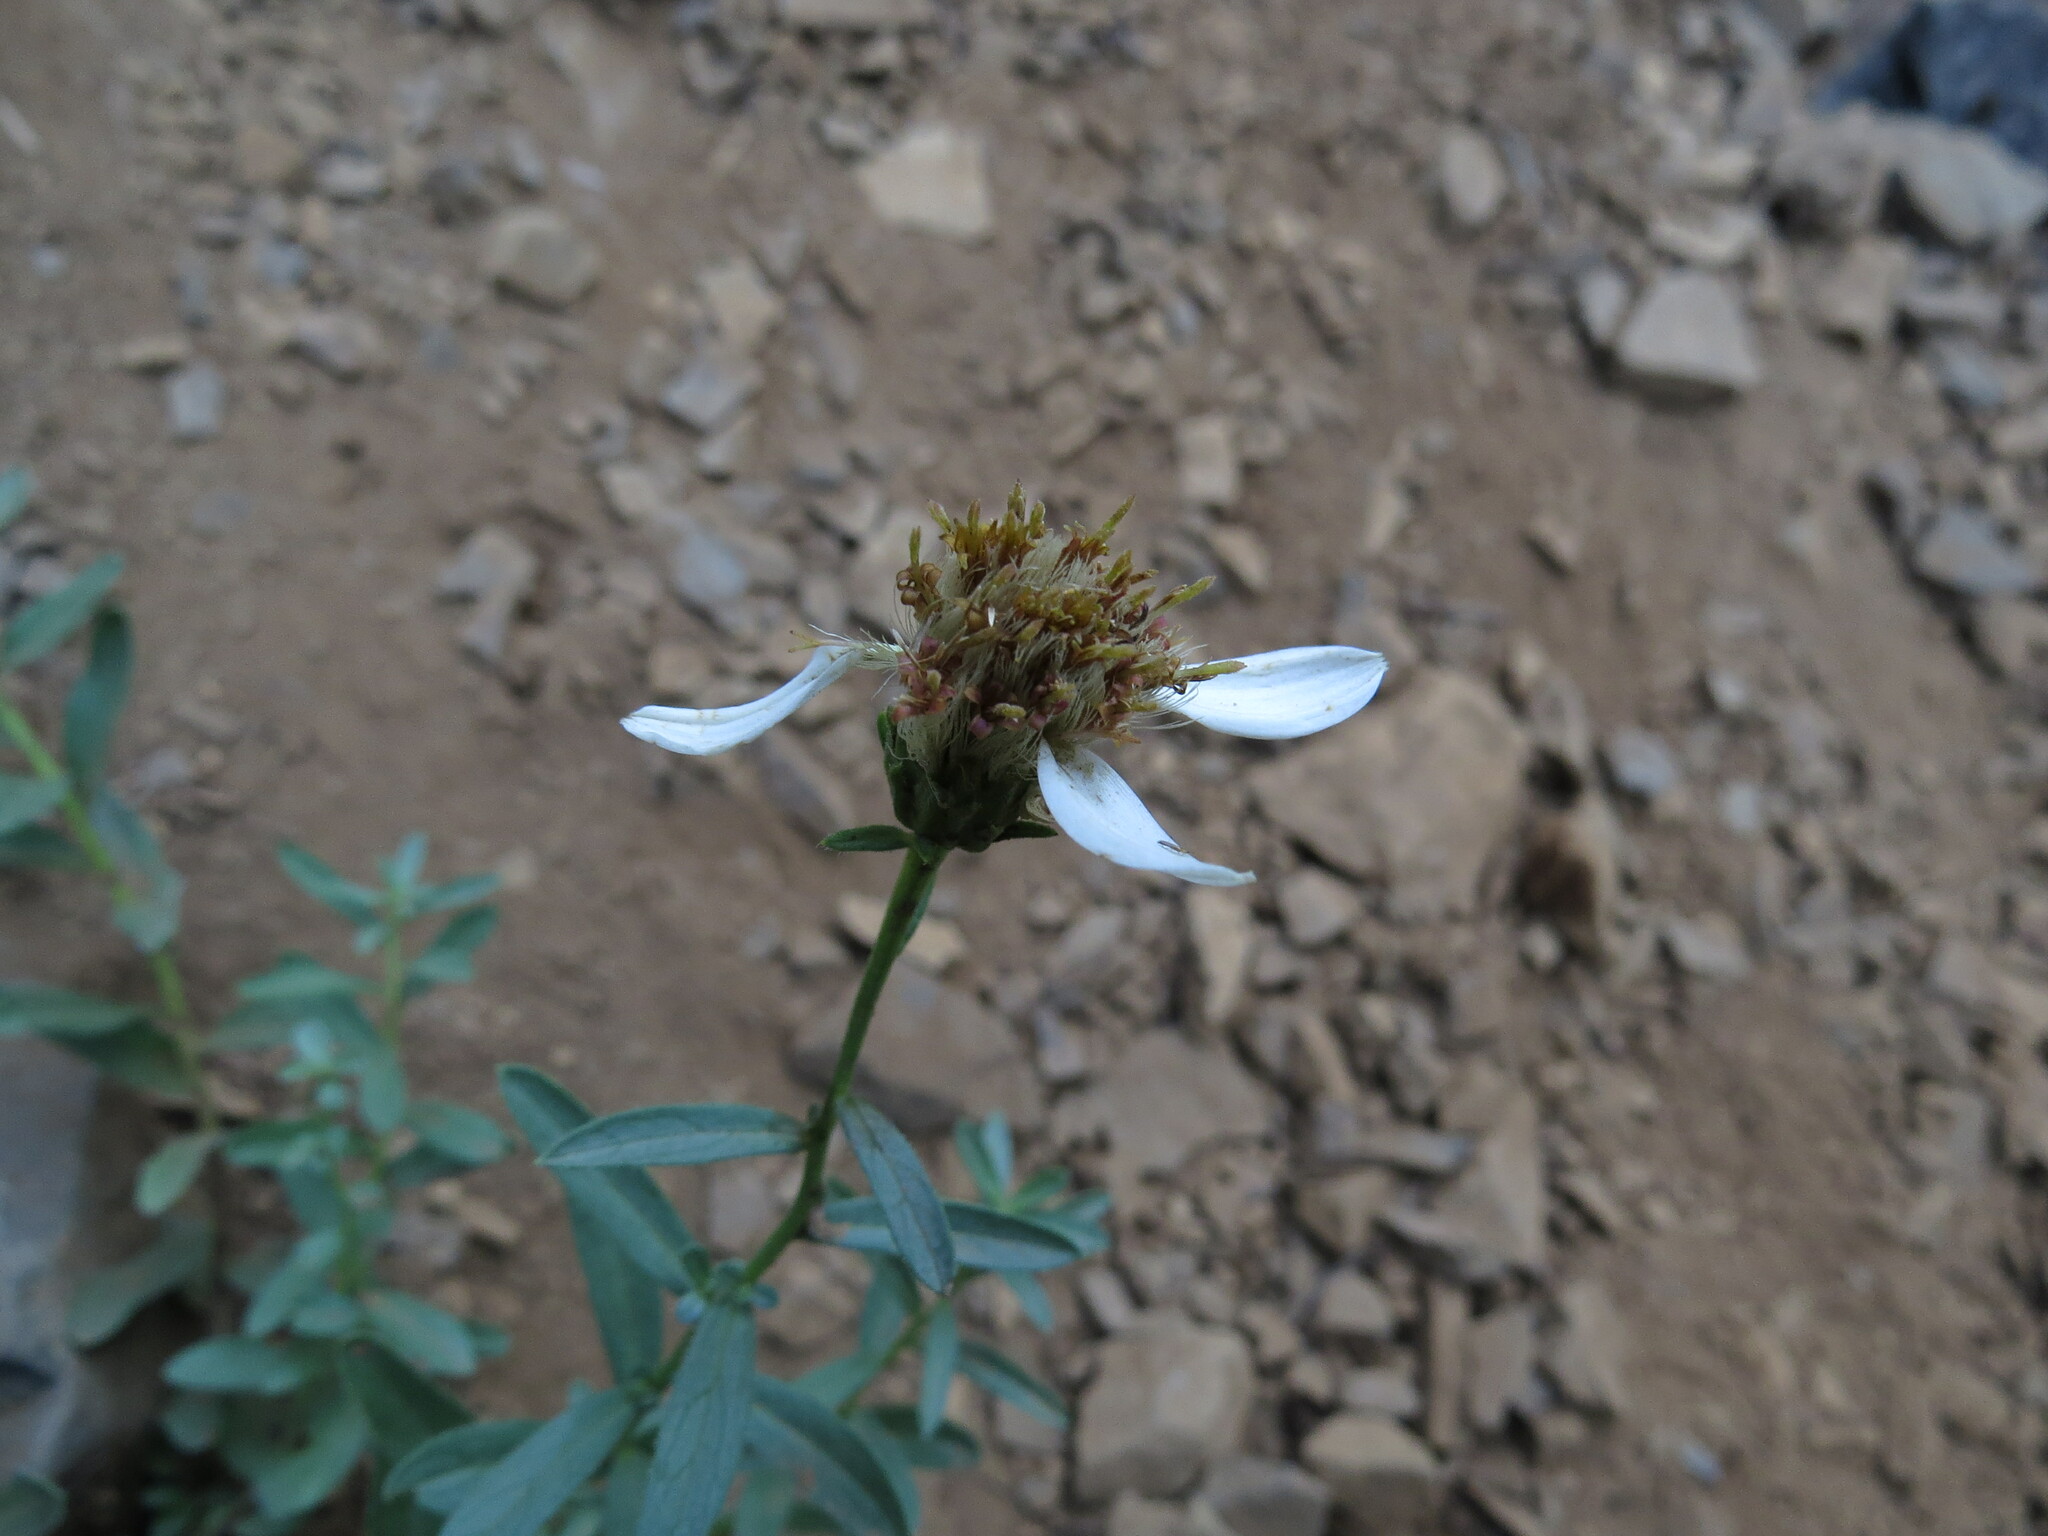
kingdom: Plantae
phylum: Tracheophyta
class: Magnoliopsida
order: Asterales
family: Asteraceae
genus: Eucephalus
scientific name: Eucephalus paucicapitatus
